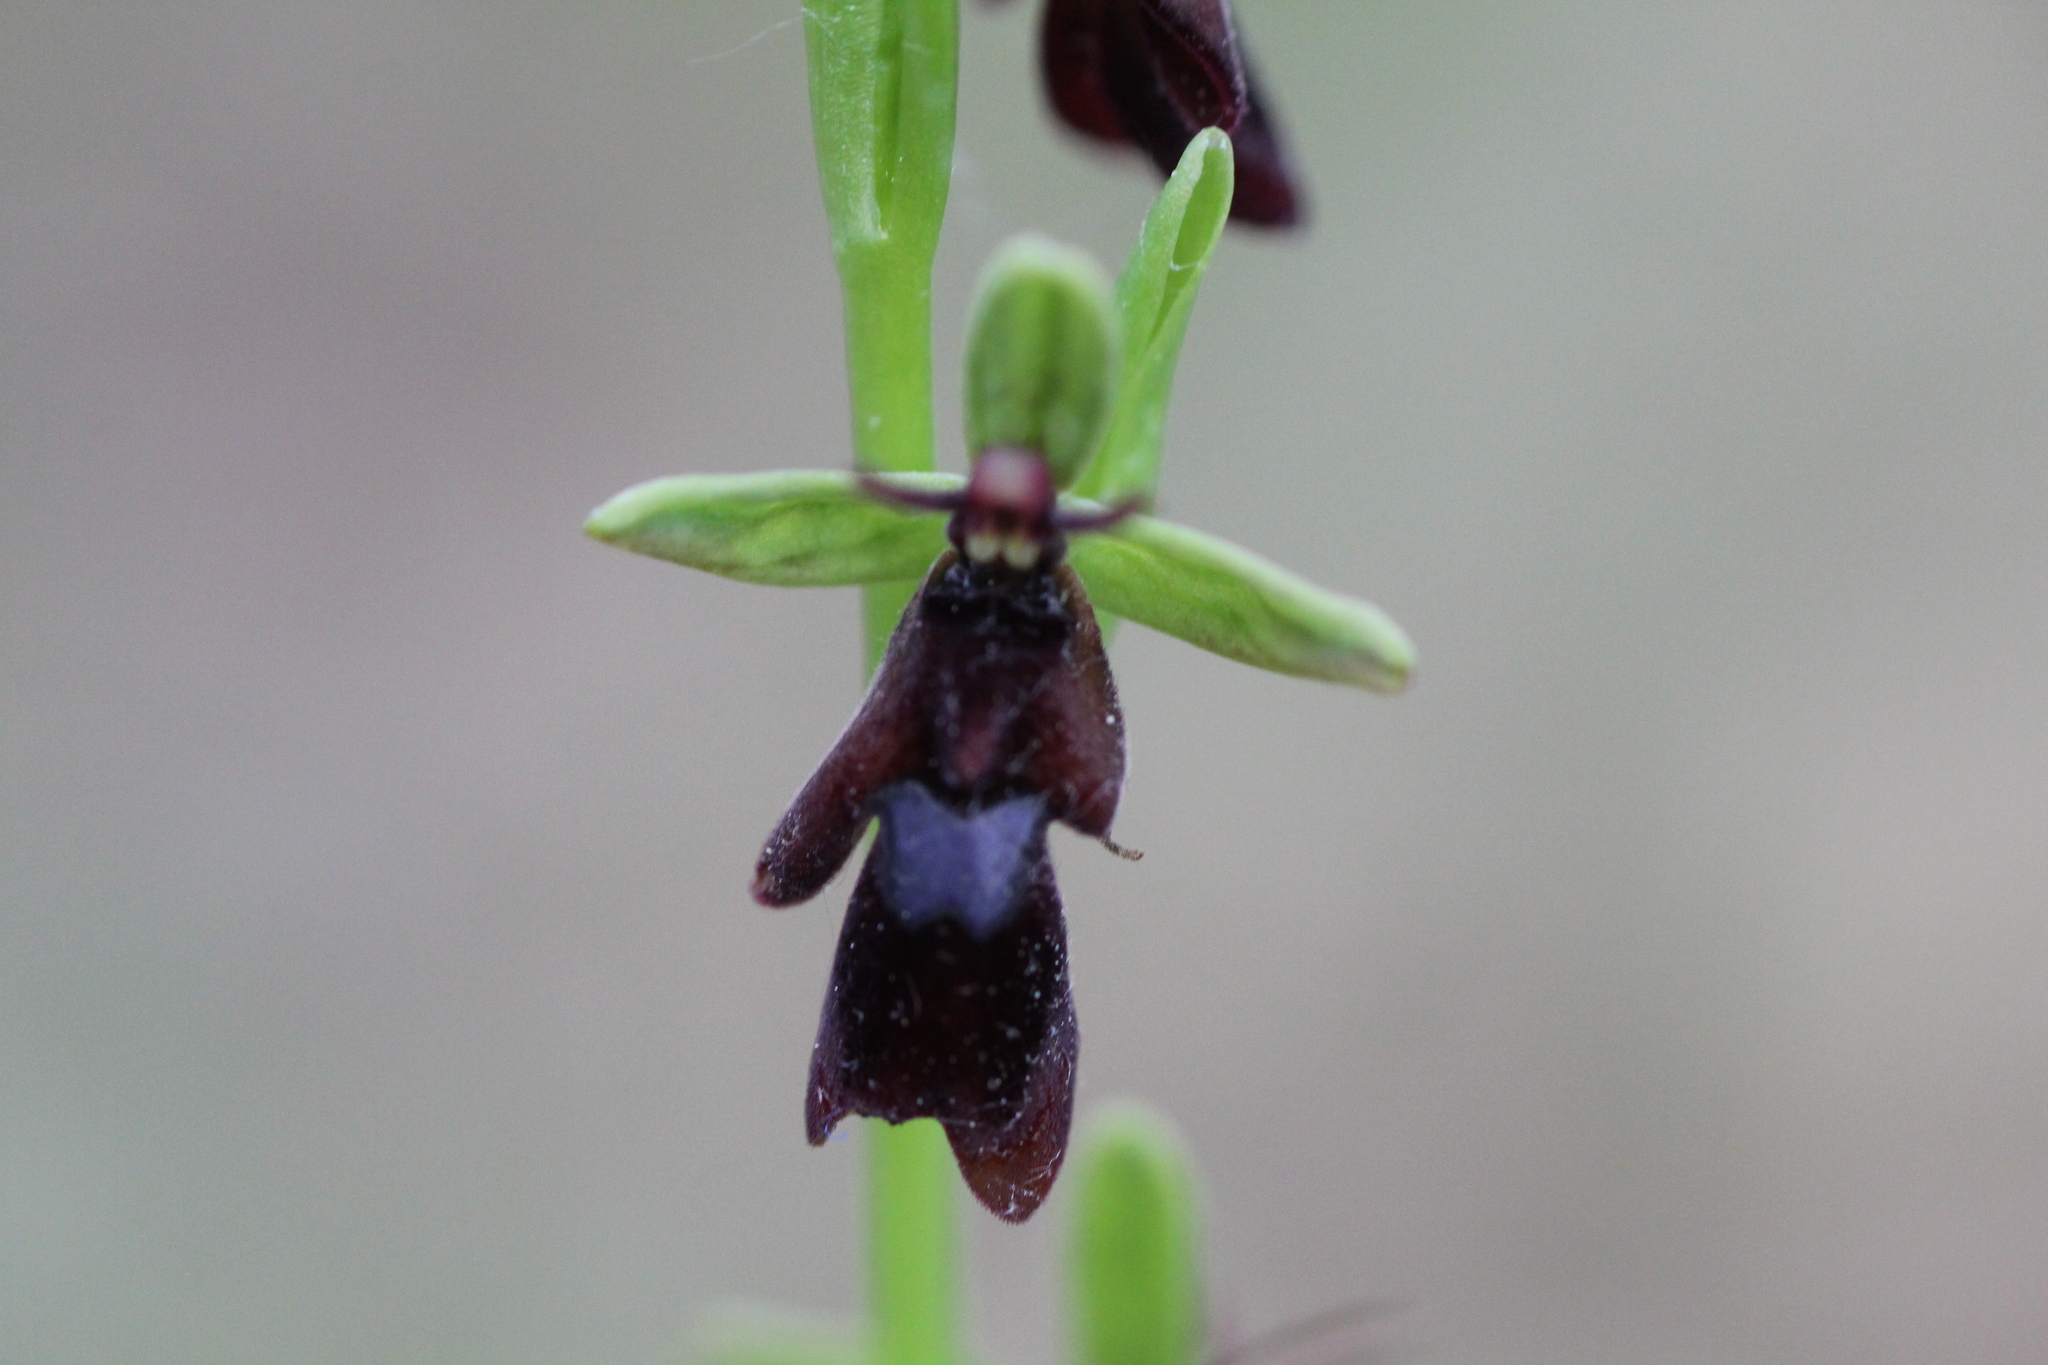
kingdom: Plantae
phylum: Tracheophyta
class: Liliopsida
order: Asparagales
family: Orchidaceae
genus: Ophrys
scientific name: Ophrys insectifera
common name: Fly orchid
